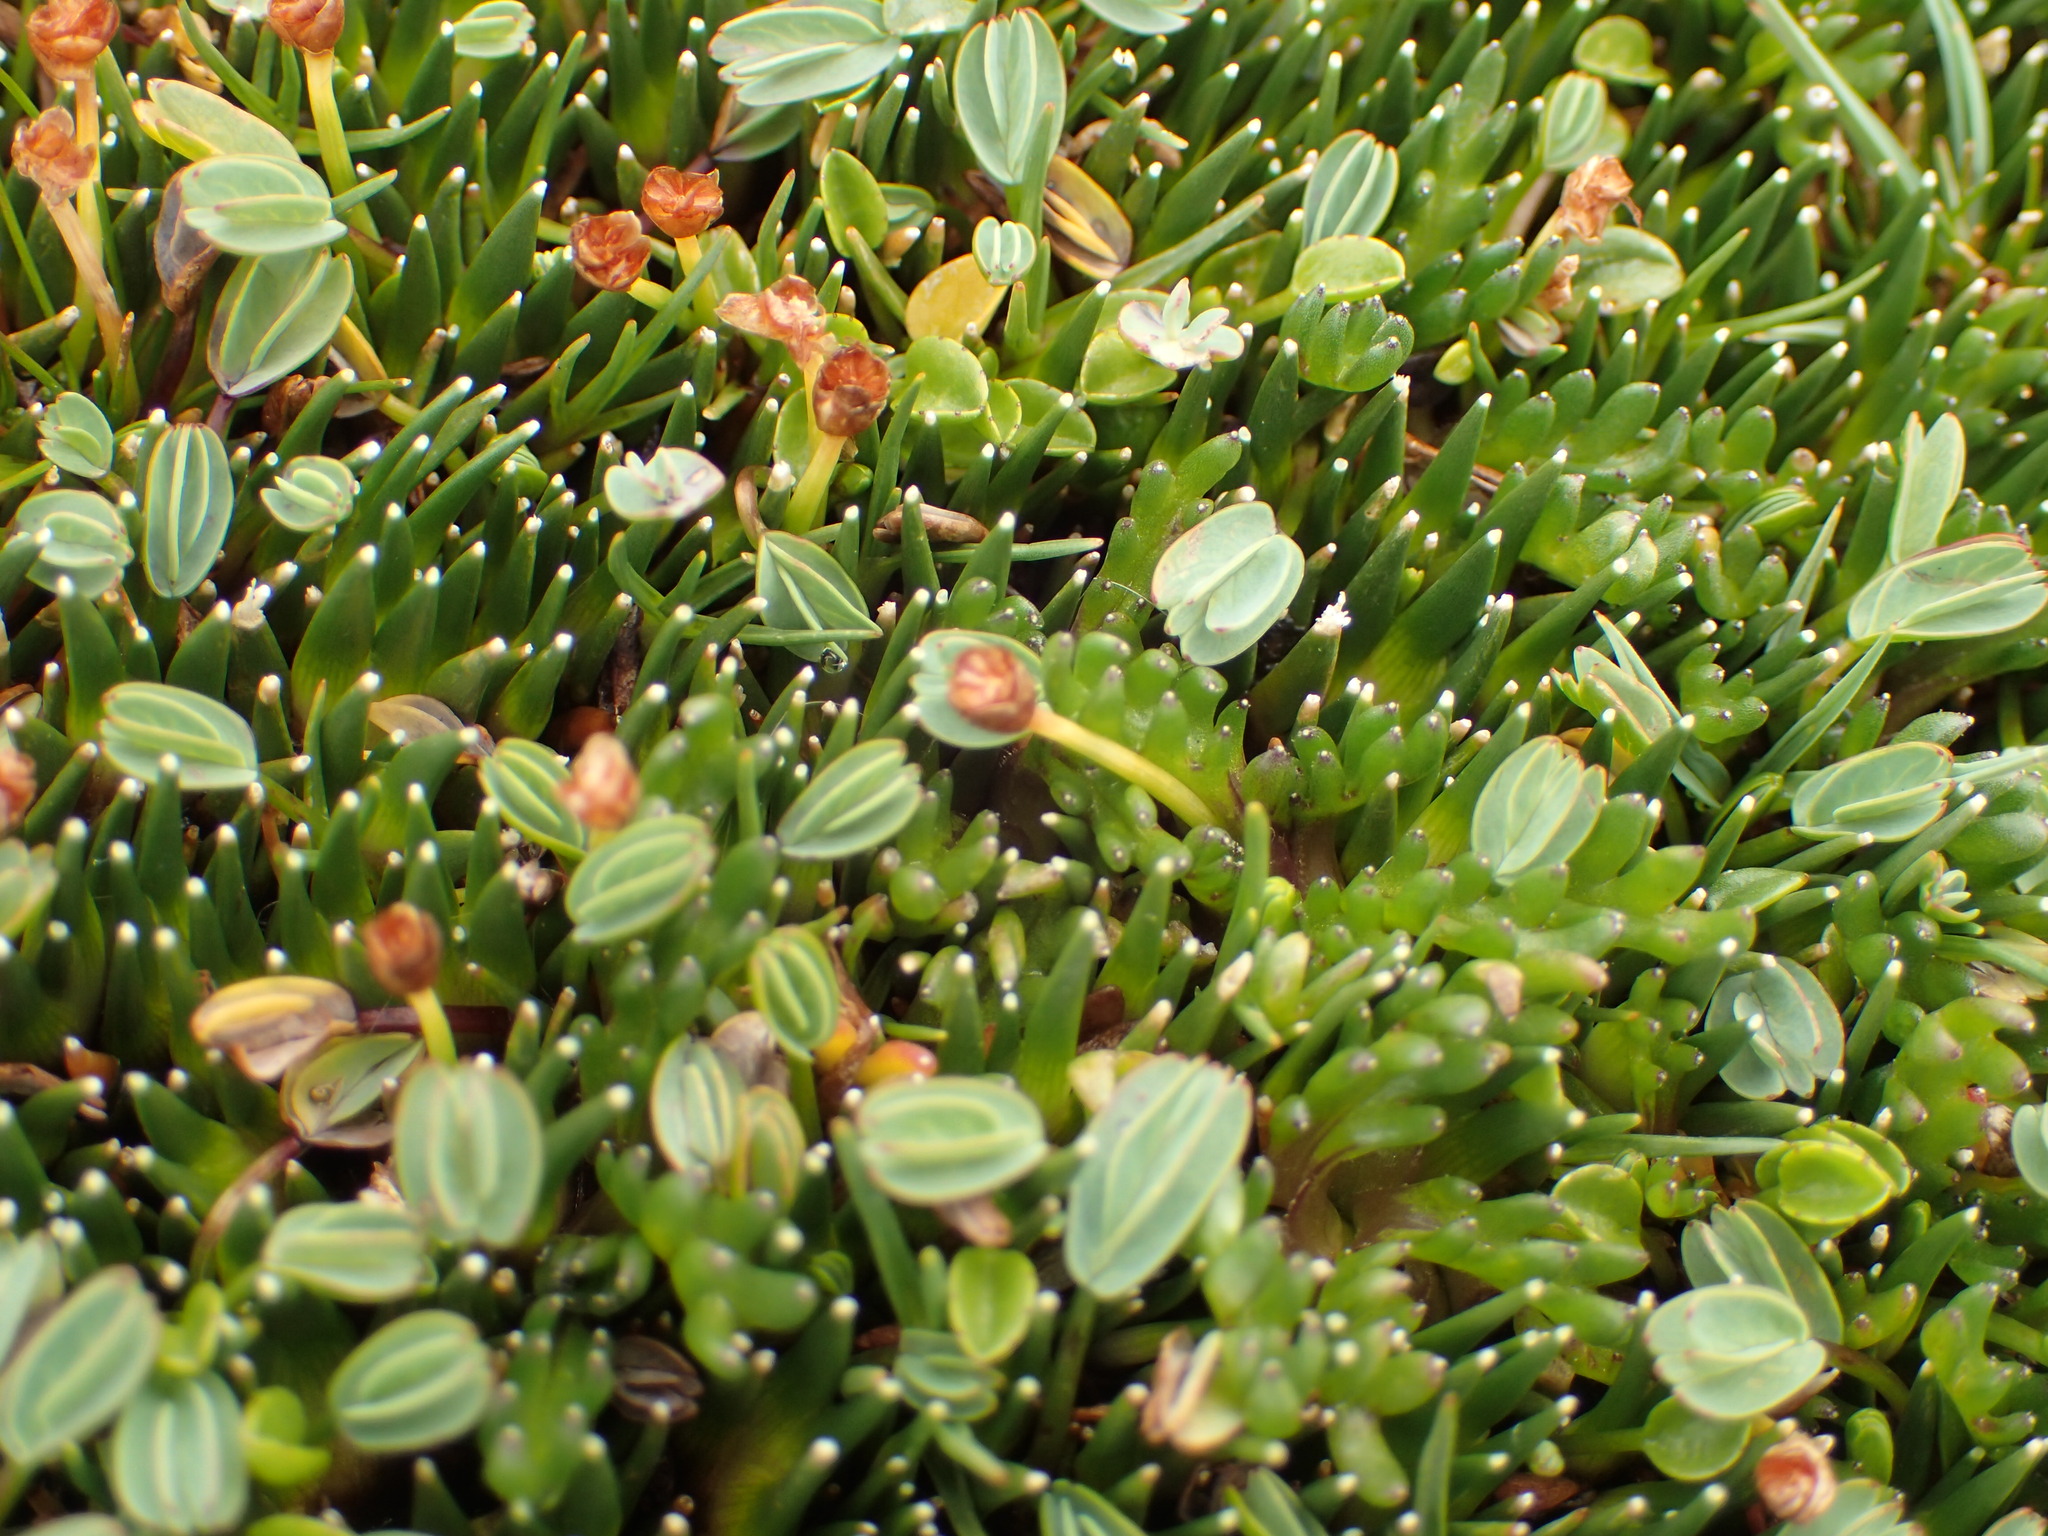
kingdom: Plantae
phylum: Tracheophyta
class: Magnoliopsida
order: Rosales
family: Rosaceae
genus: Lachemilla
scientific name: Lachemilla diplophylla
